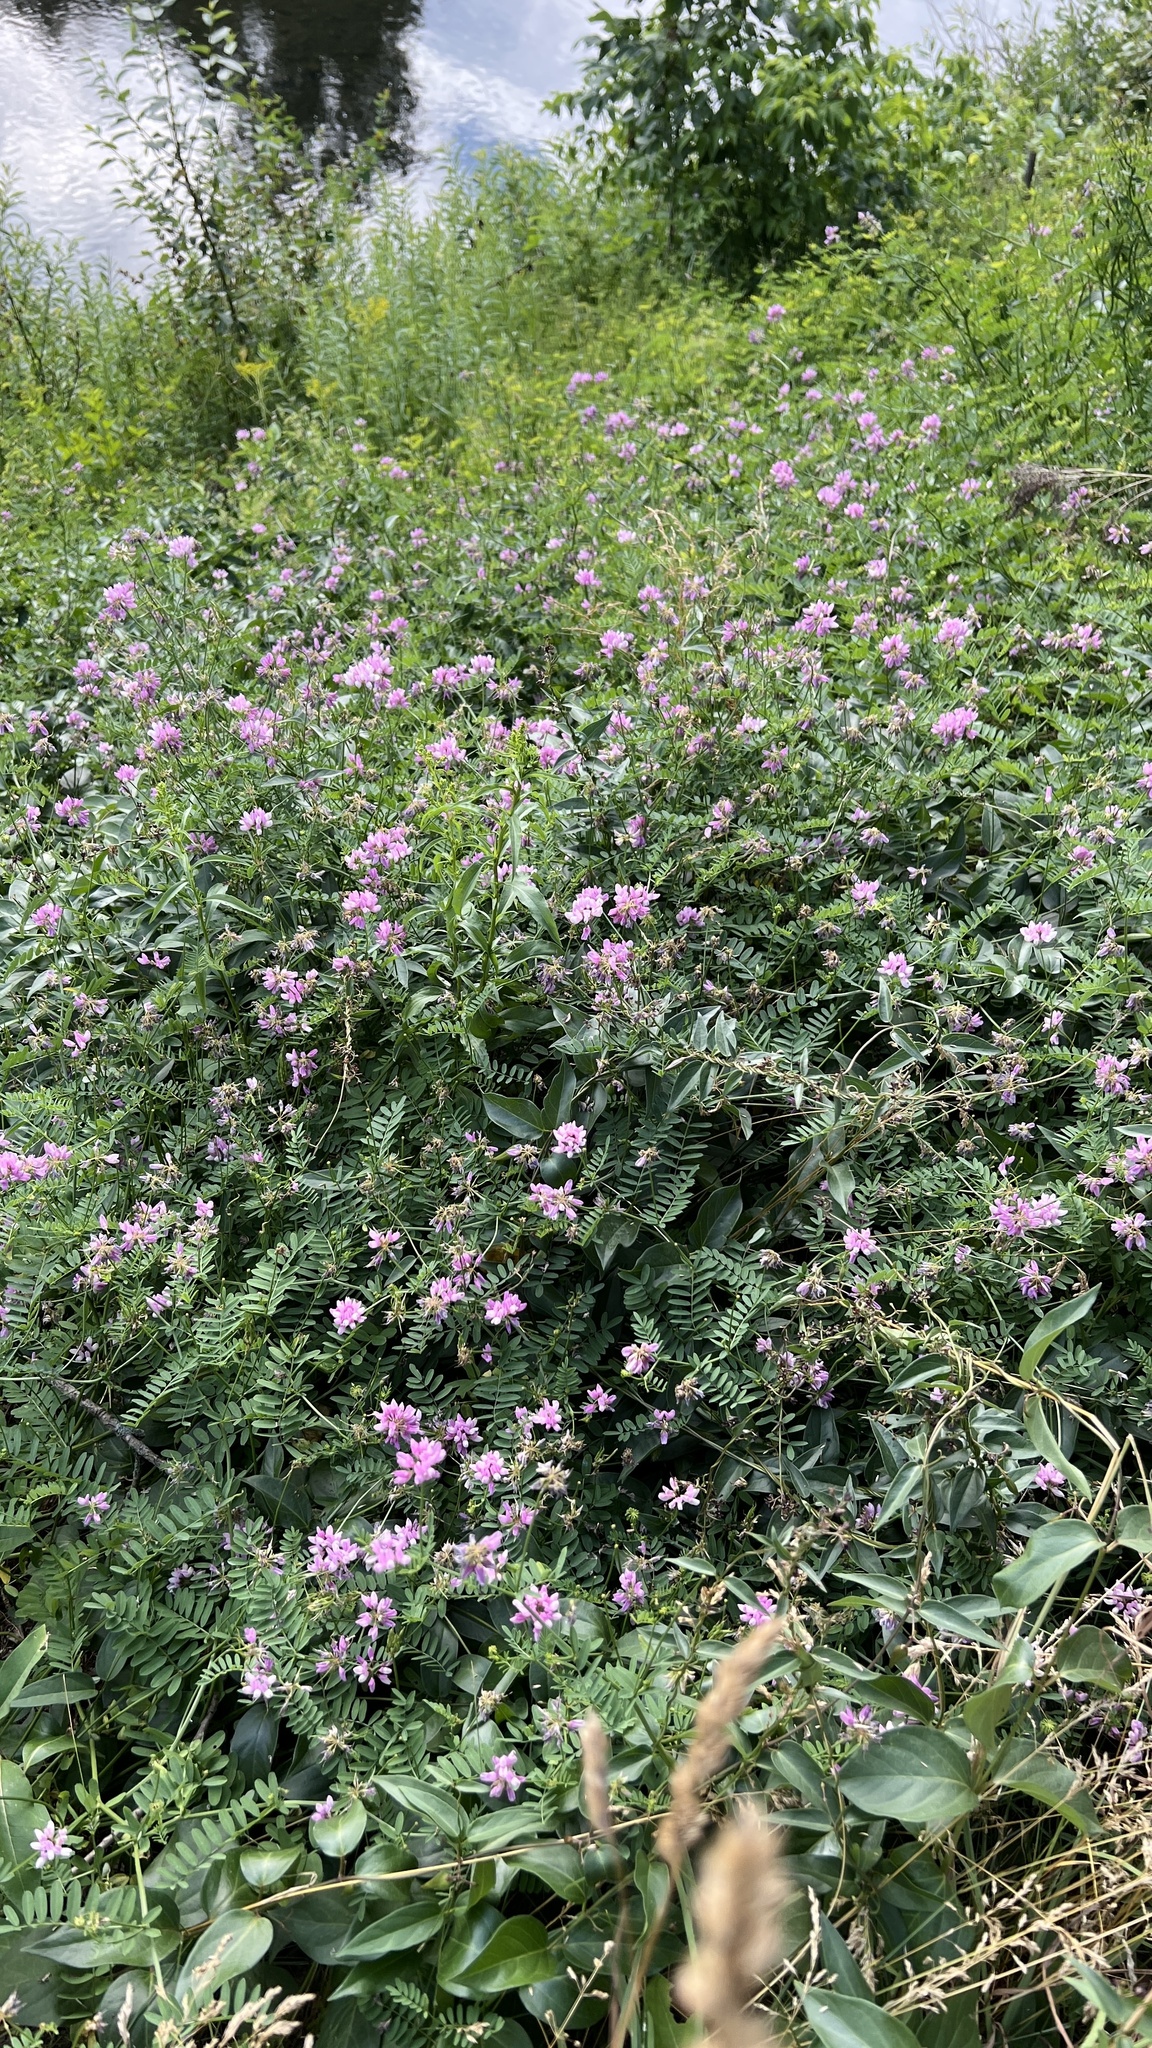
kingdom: Plantae
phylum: Tracheophyta
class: Magnoliopsida
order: Fabales
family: Fabaceae
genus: Coronilla
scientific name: Coronilla varia
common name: Crownvetch
